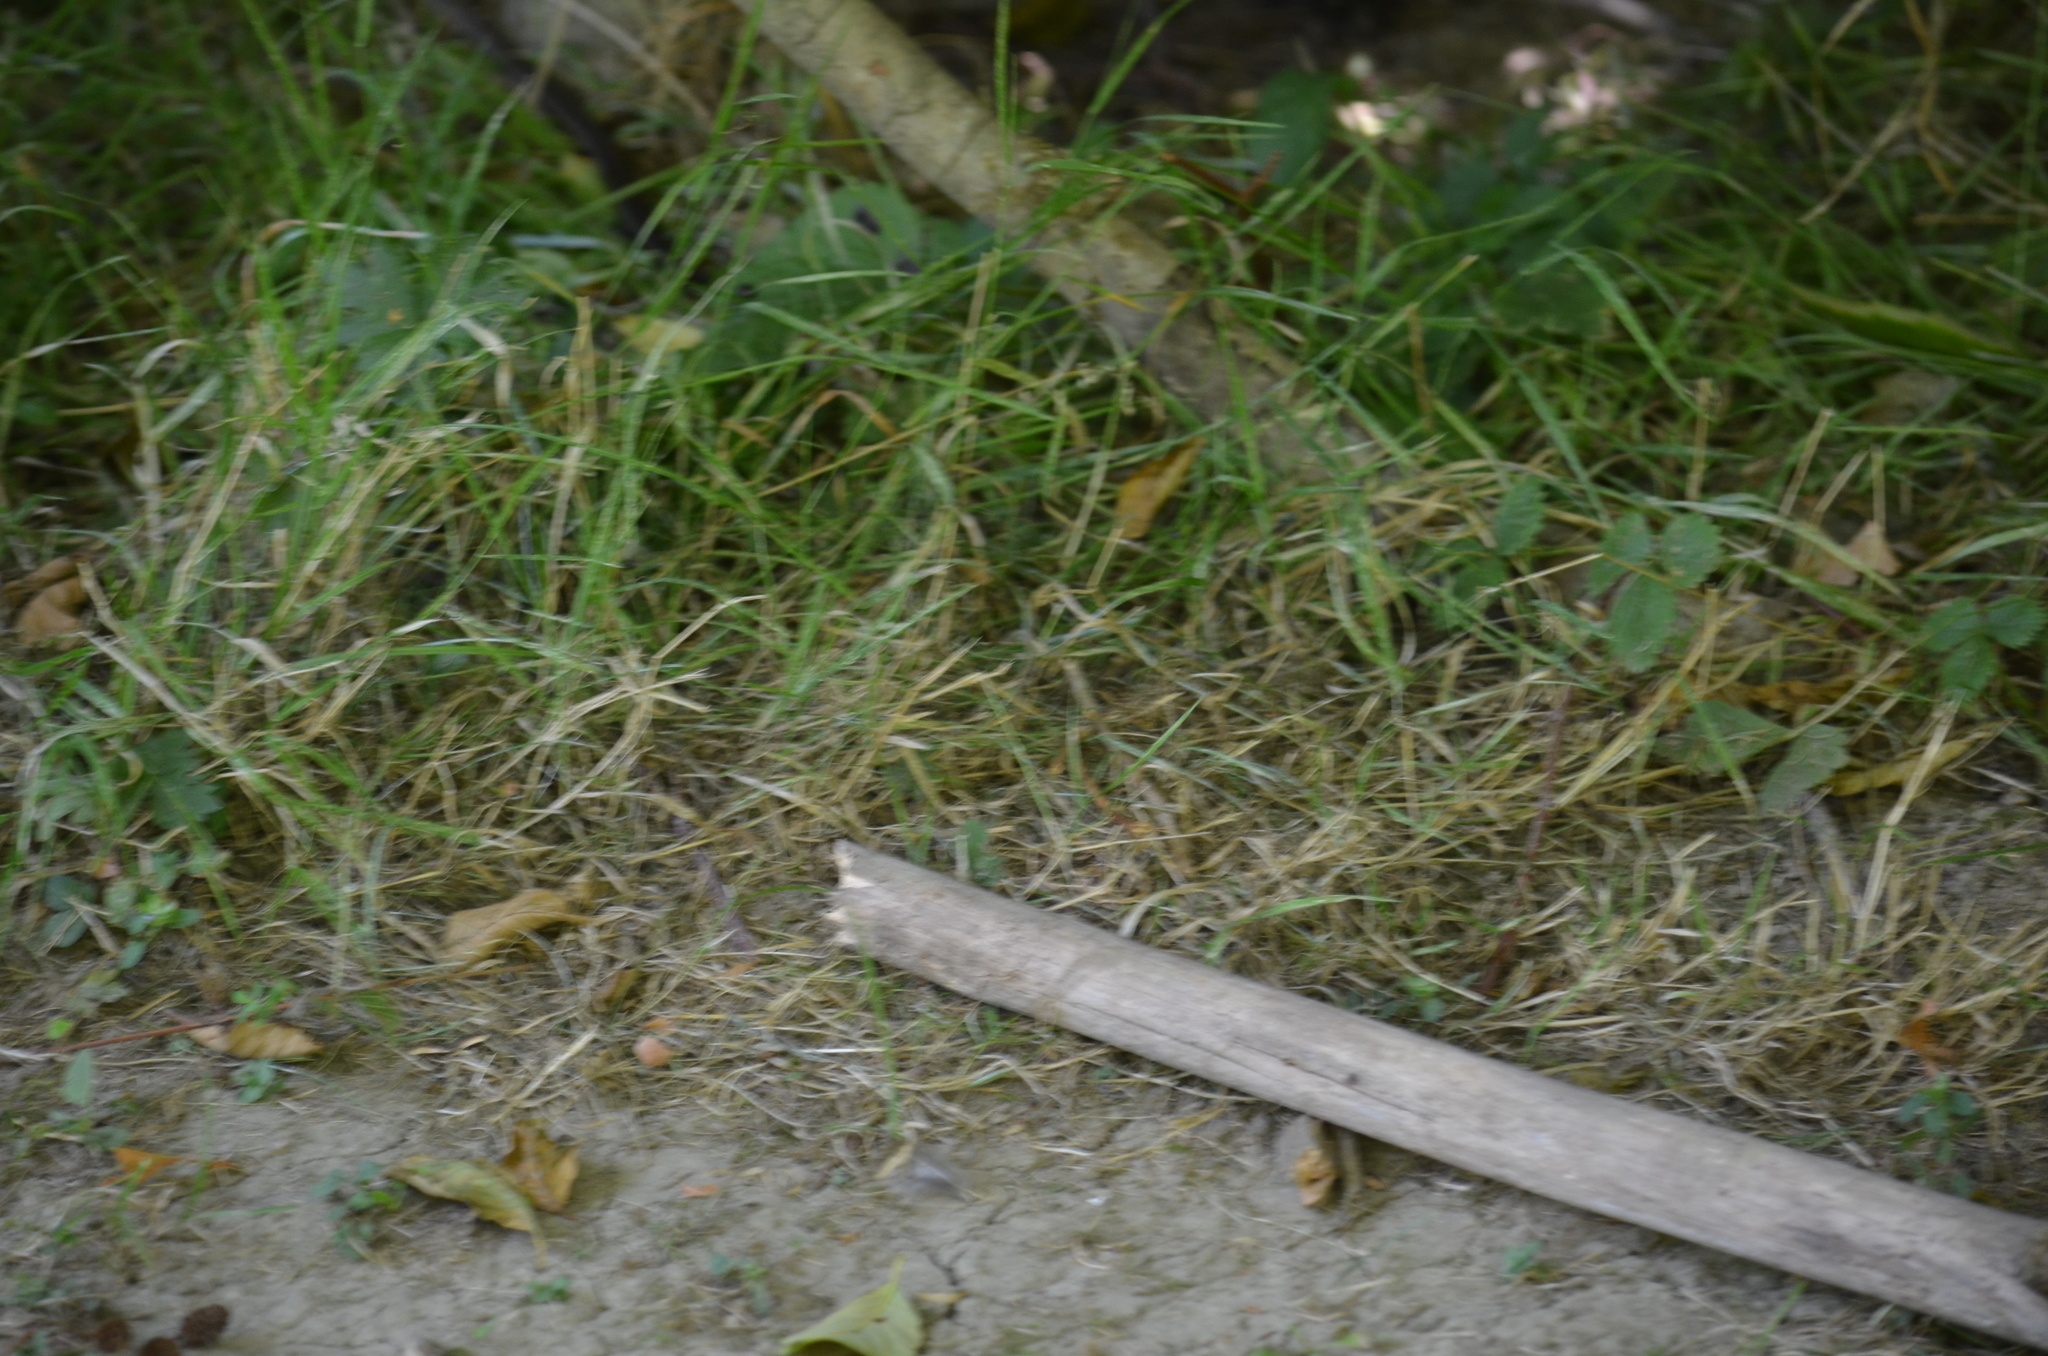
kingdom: Animalia
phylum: Chordata
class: Squamata
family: Colubridae
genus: Thamnophis
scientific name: Thamnophis ordinoides
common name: Northwestern garter snake
